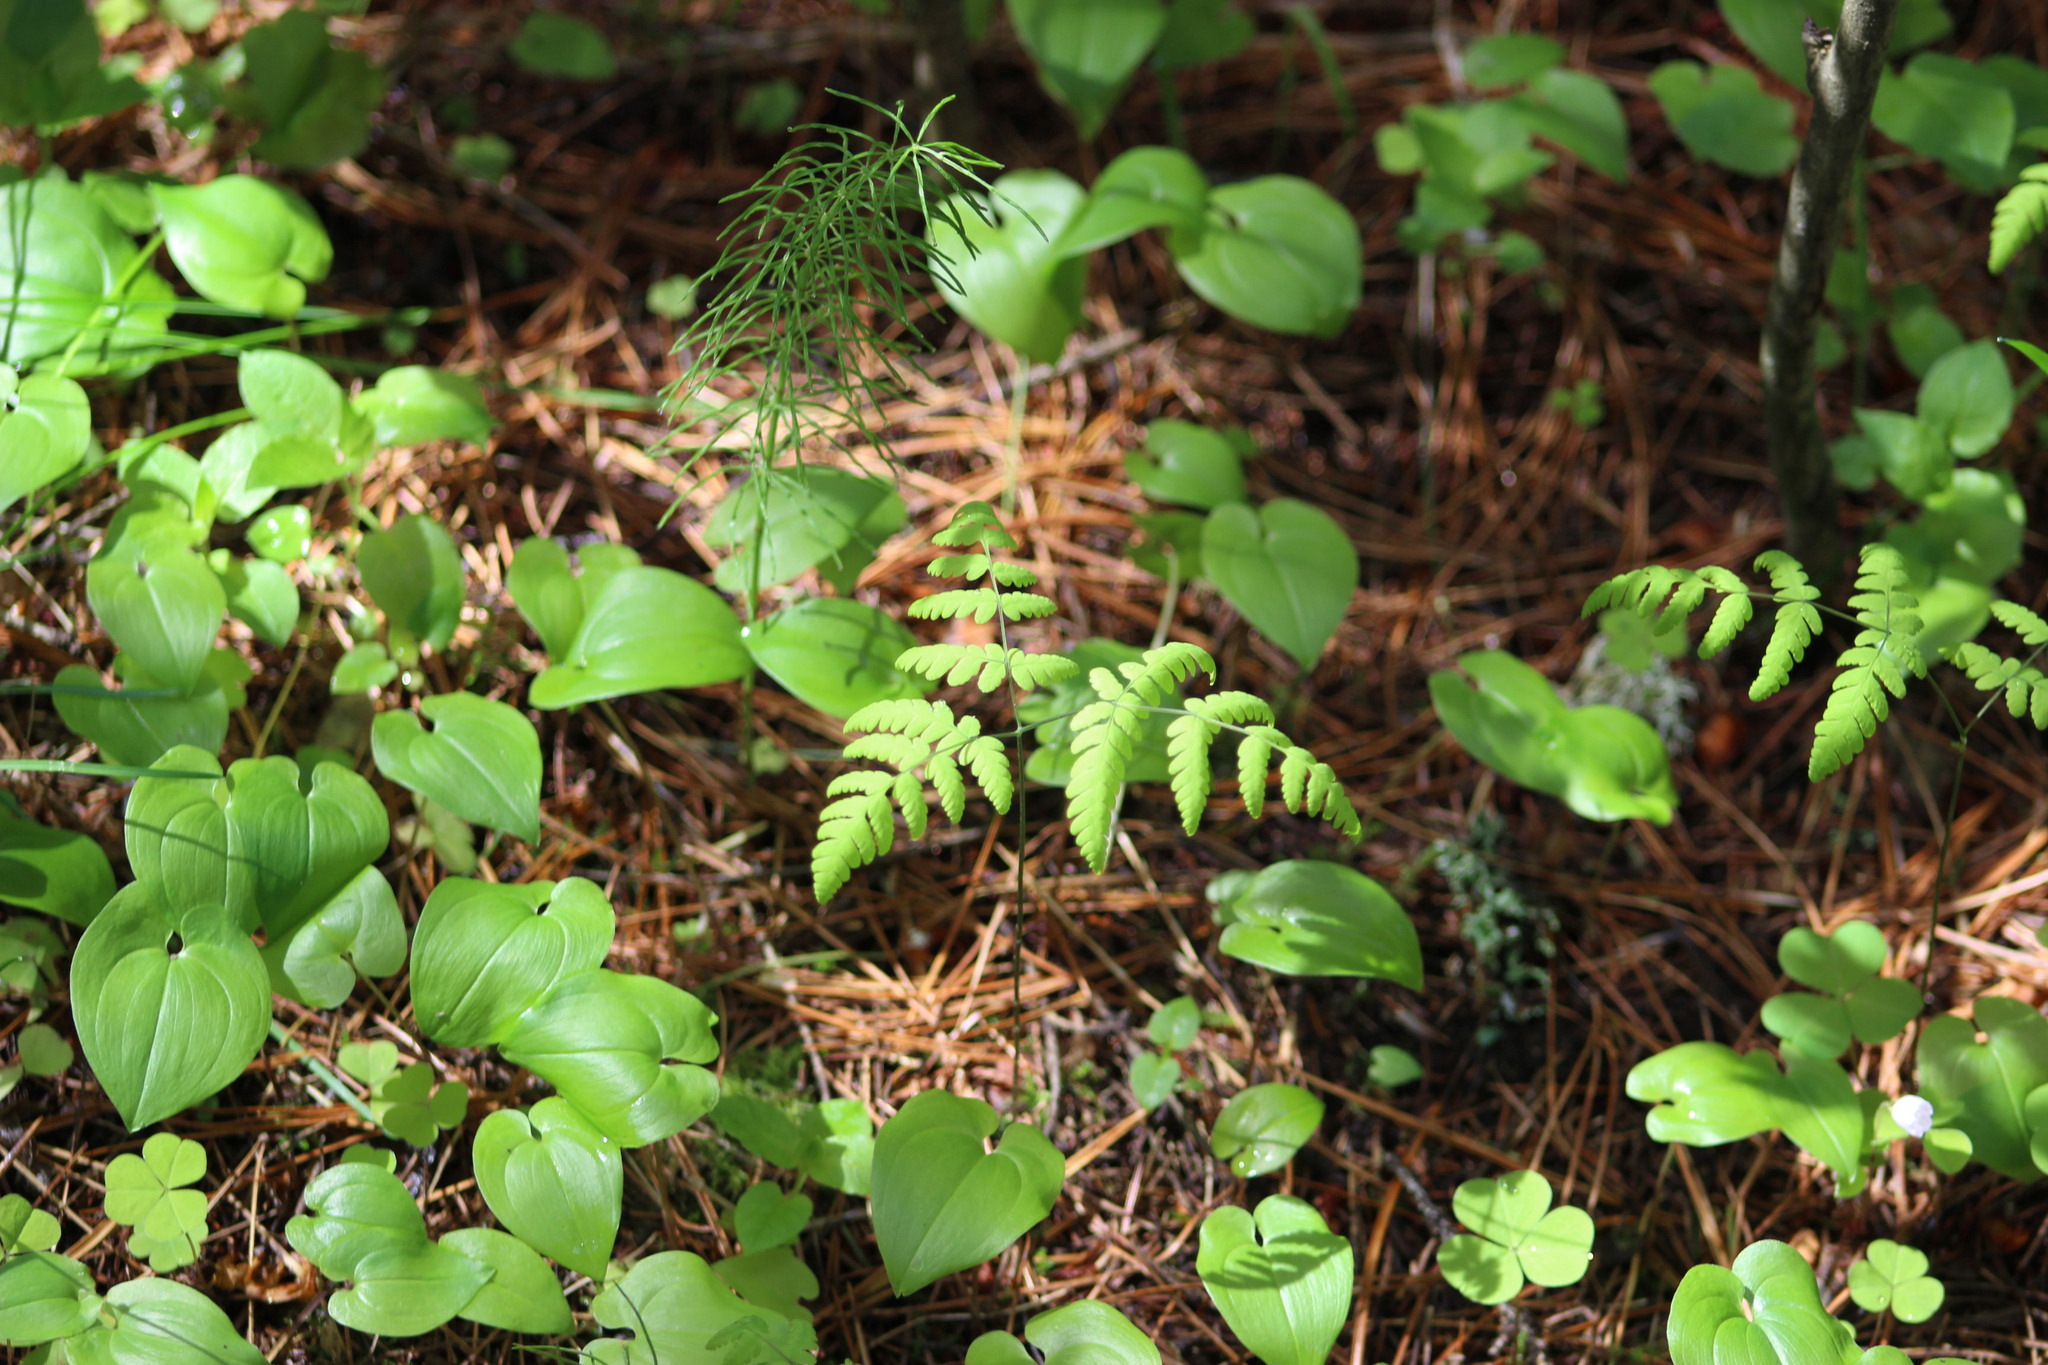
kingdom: Plantae
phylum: Tracheophyta
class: Polypodiopsida
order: Polypodiales
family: Cystopteridaceae
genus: Gymnocarpium
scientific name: Gymnocarpium dryopteris
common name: Oak fern
